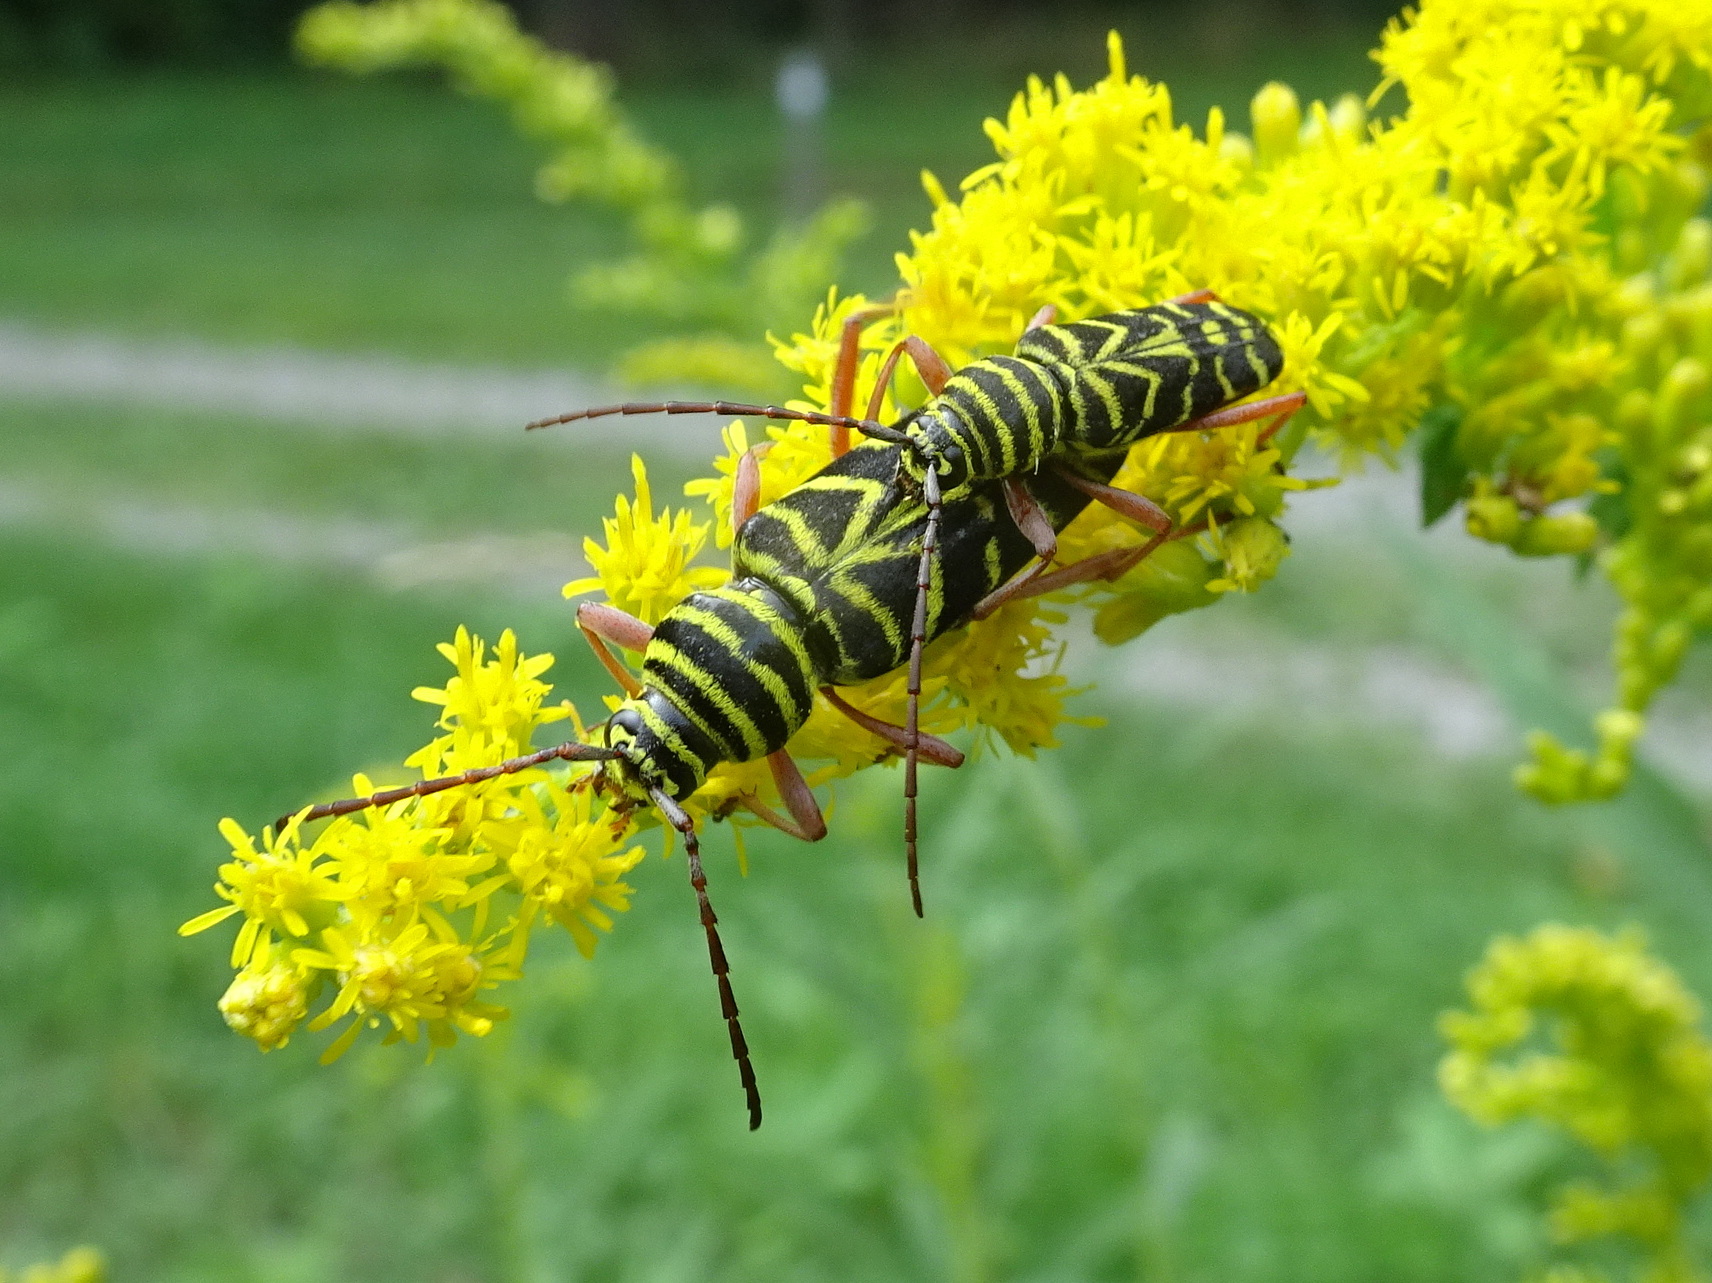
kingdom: Animalia
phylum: Arthropoda
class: Insecta
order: Coleoptera
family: Cerambycidae
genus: Megacyllene
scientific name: Megacyllene robiniae
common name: Locust borer
